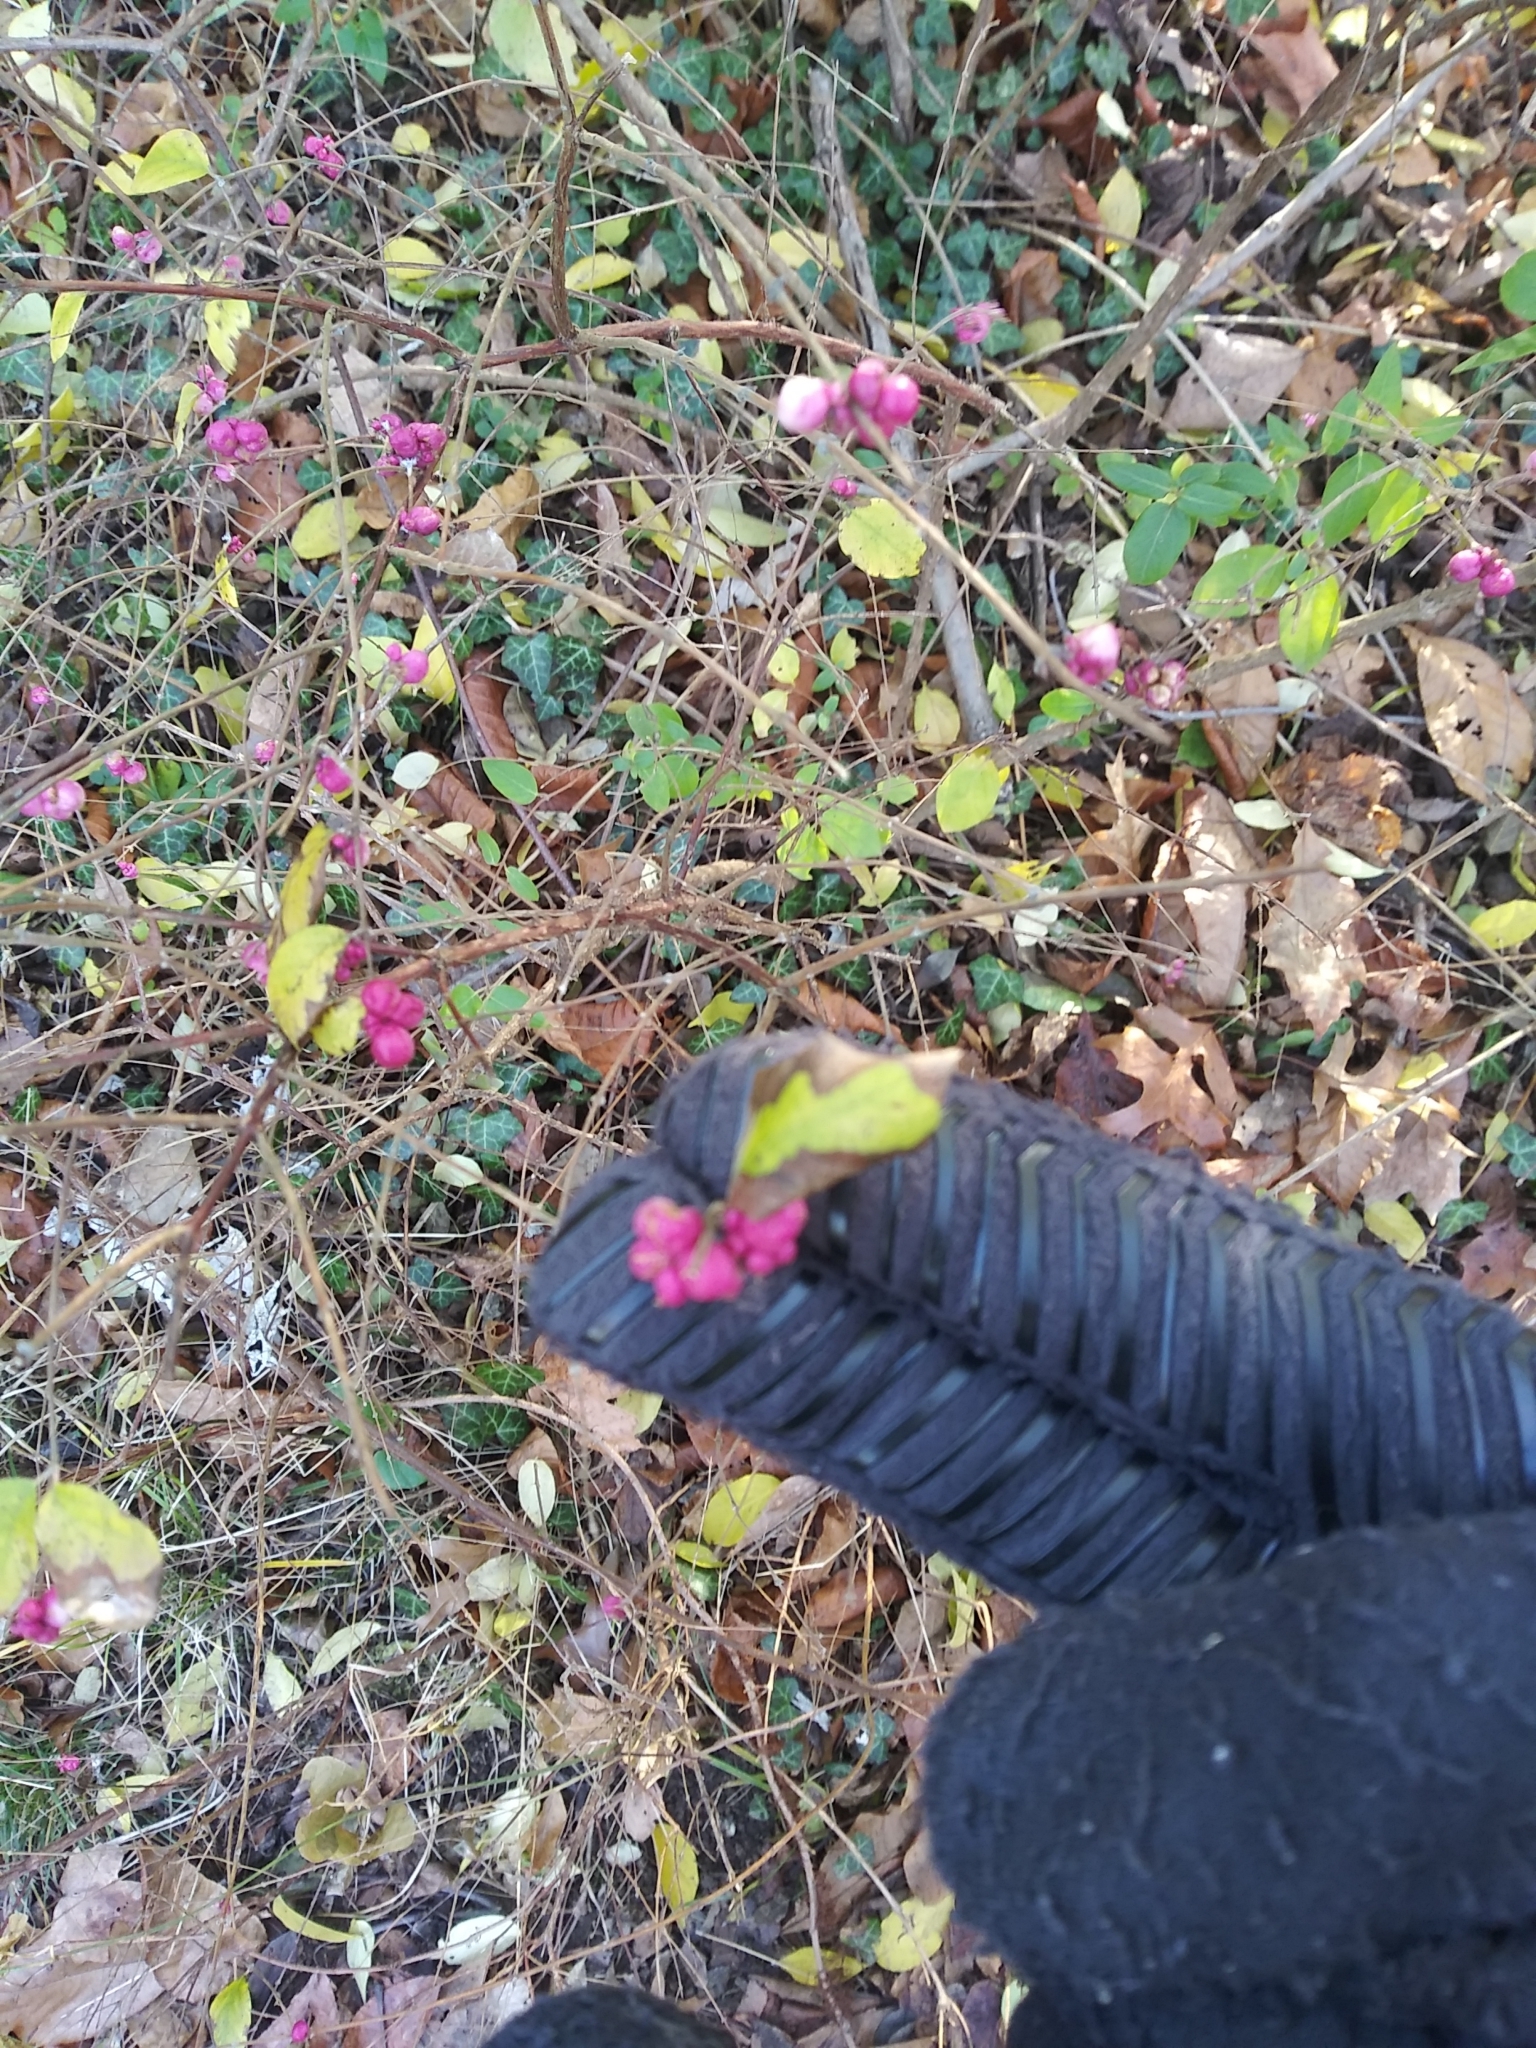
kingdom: Plantae
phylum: Tracheophyta
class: Magnoliopsida
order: Dipsacales
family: Caprifoliaceae
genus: Symphoricarpos
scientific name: Symphoricarpos orbiculatus
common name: Coralberry
